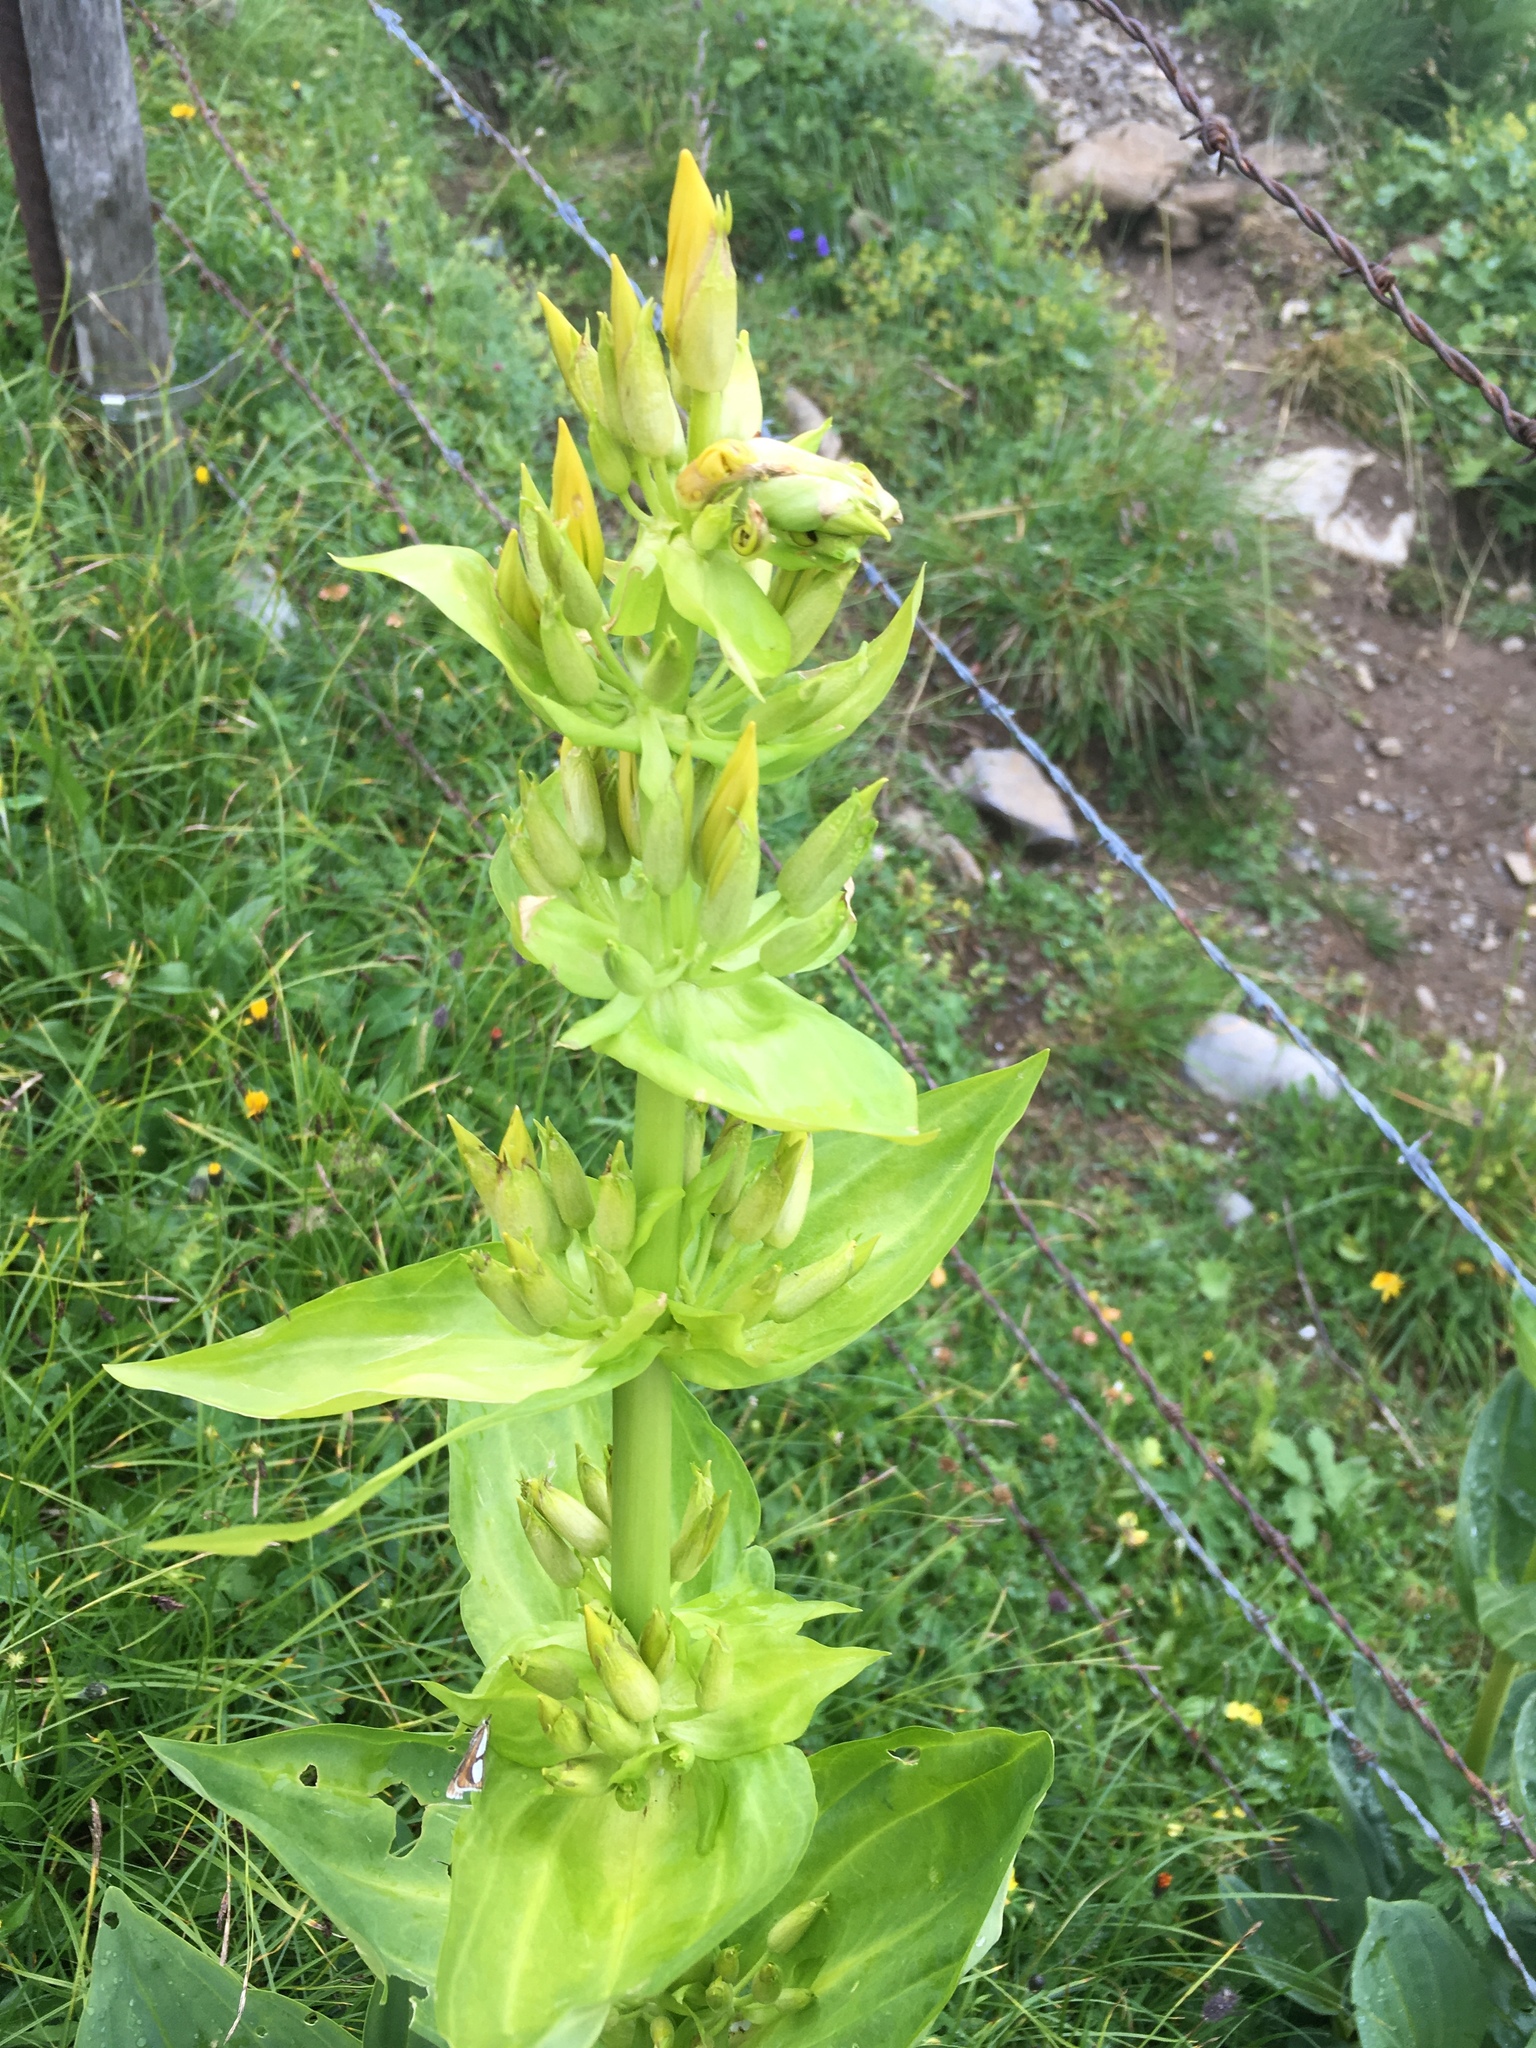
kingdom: Plantae
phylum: Tracheophyta
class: Magnoliopsida
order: Gentianales
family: Gentianaceae
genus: Gentiana
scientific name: Gentiana lutea
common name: Great yellow gentian
